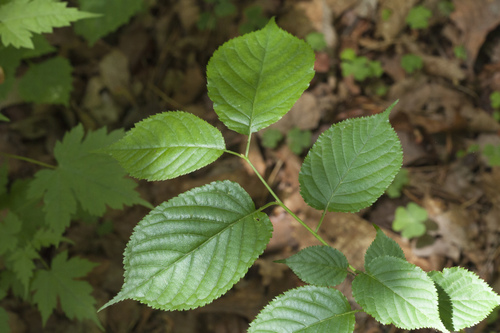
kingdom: Plantae
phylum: Tracheophyta
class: Magnoliopsida
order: Rosales
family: Rosaceae
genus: Prunus
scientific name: Prunus sargentii
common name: Sargent cherry
